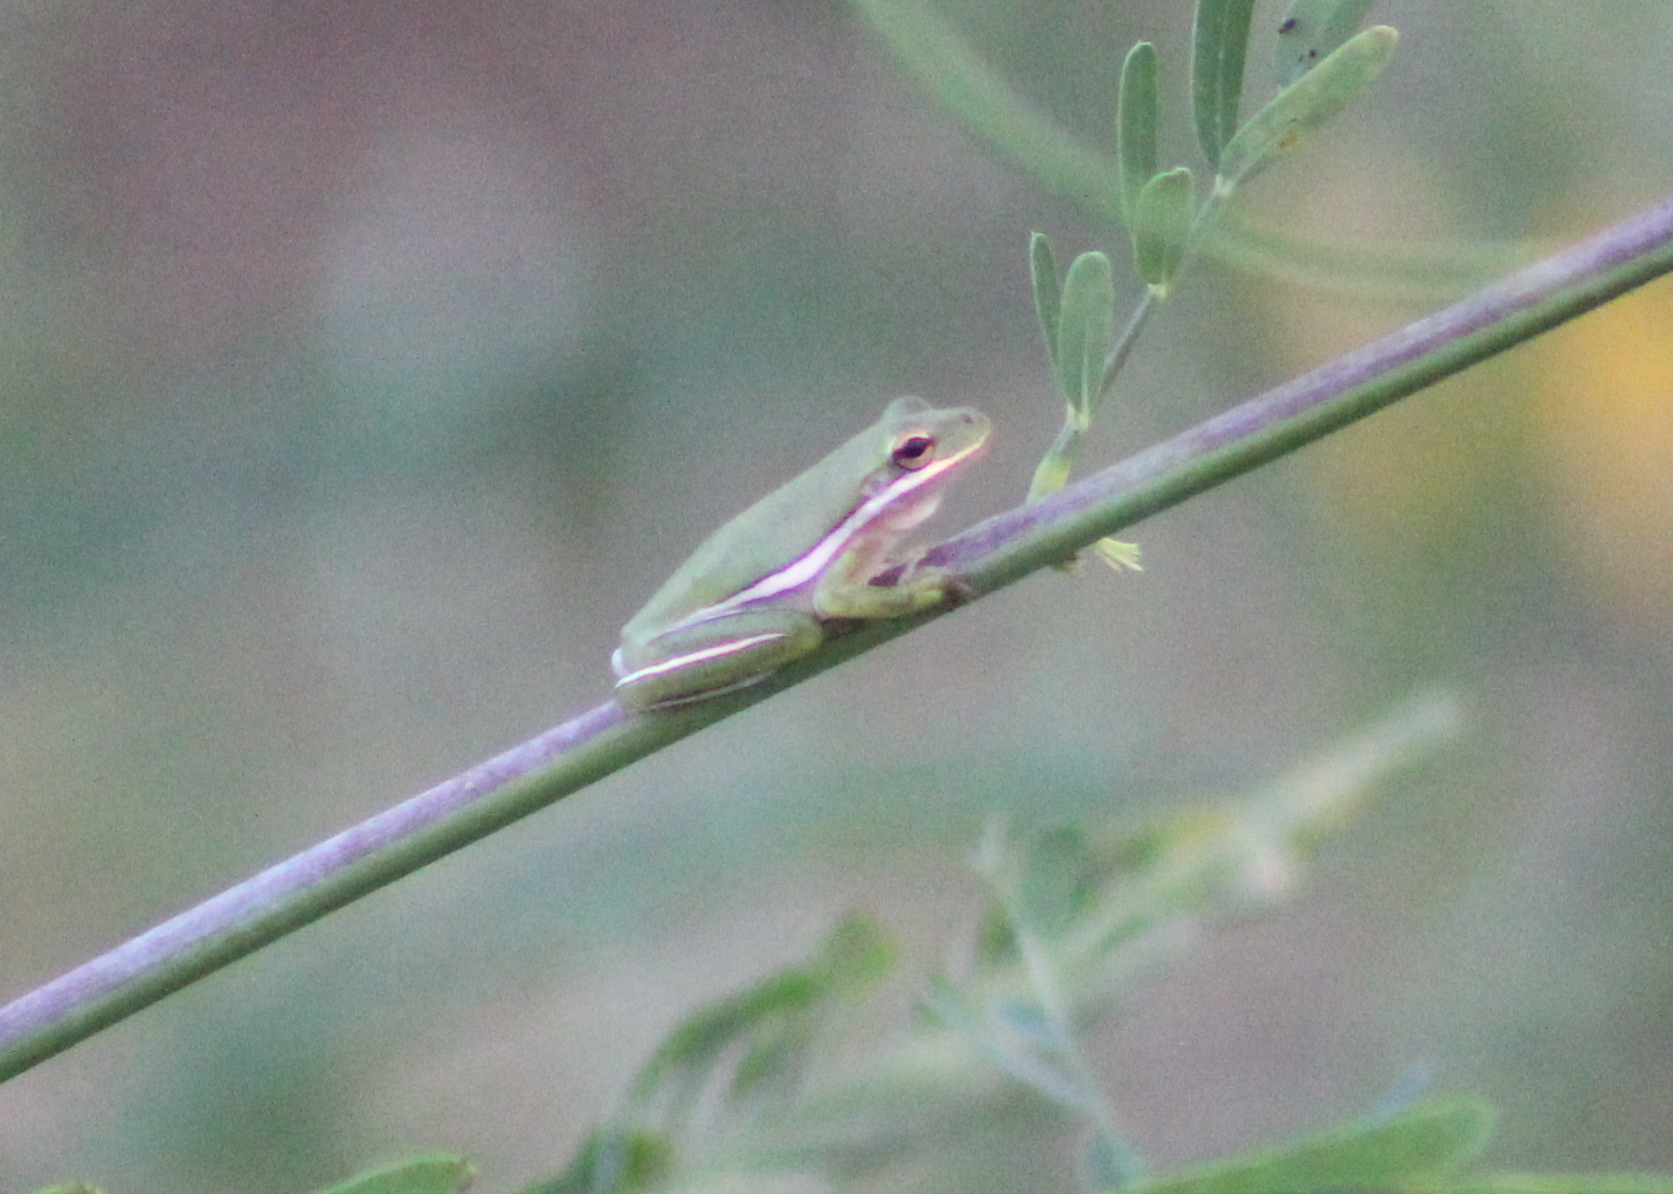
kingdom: Animalia
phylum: Chordata
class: Amphibia
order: Anura
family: Hylidae
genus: Dryophytes
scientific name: Dryophytes cinereus
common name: Green treefrog
